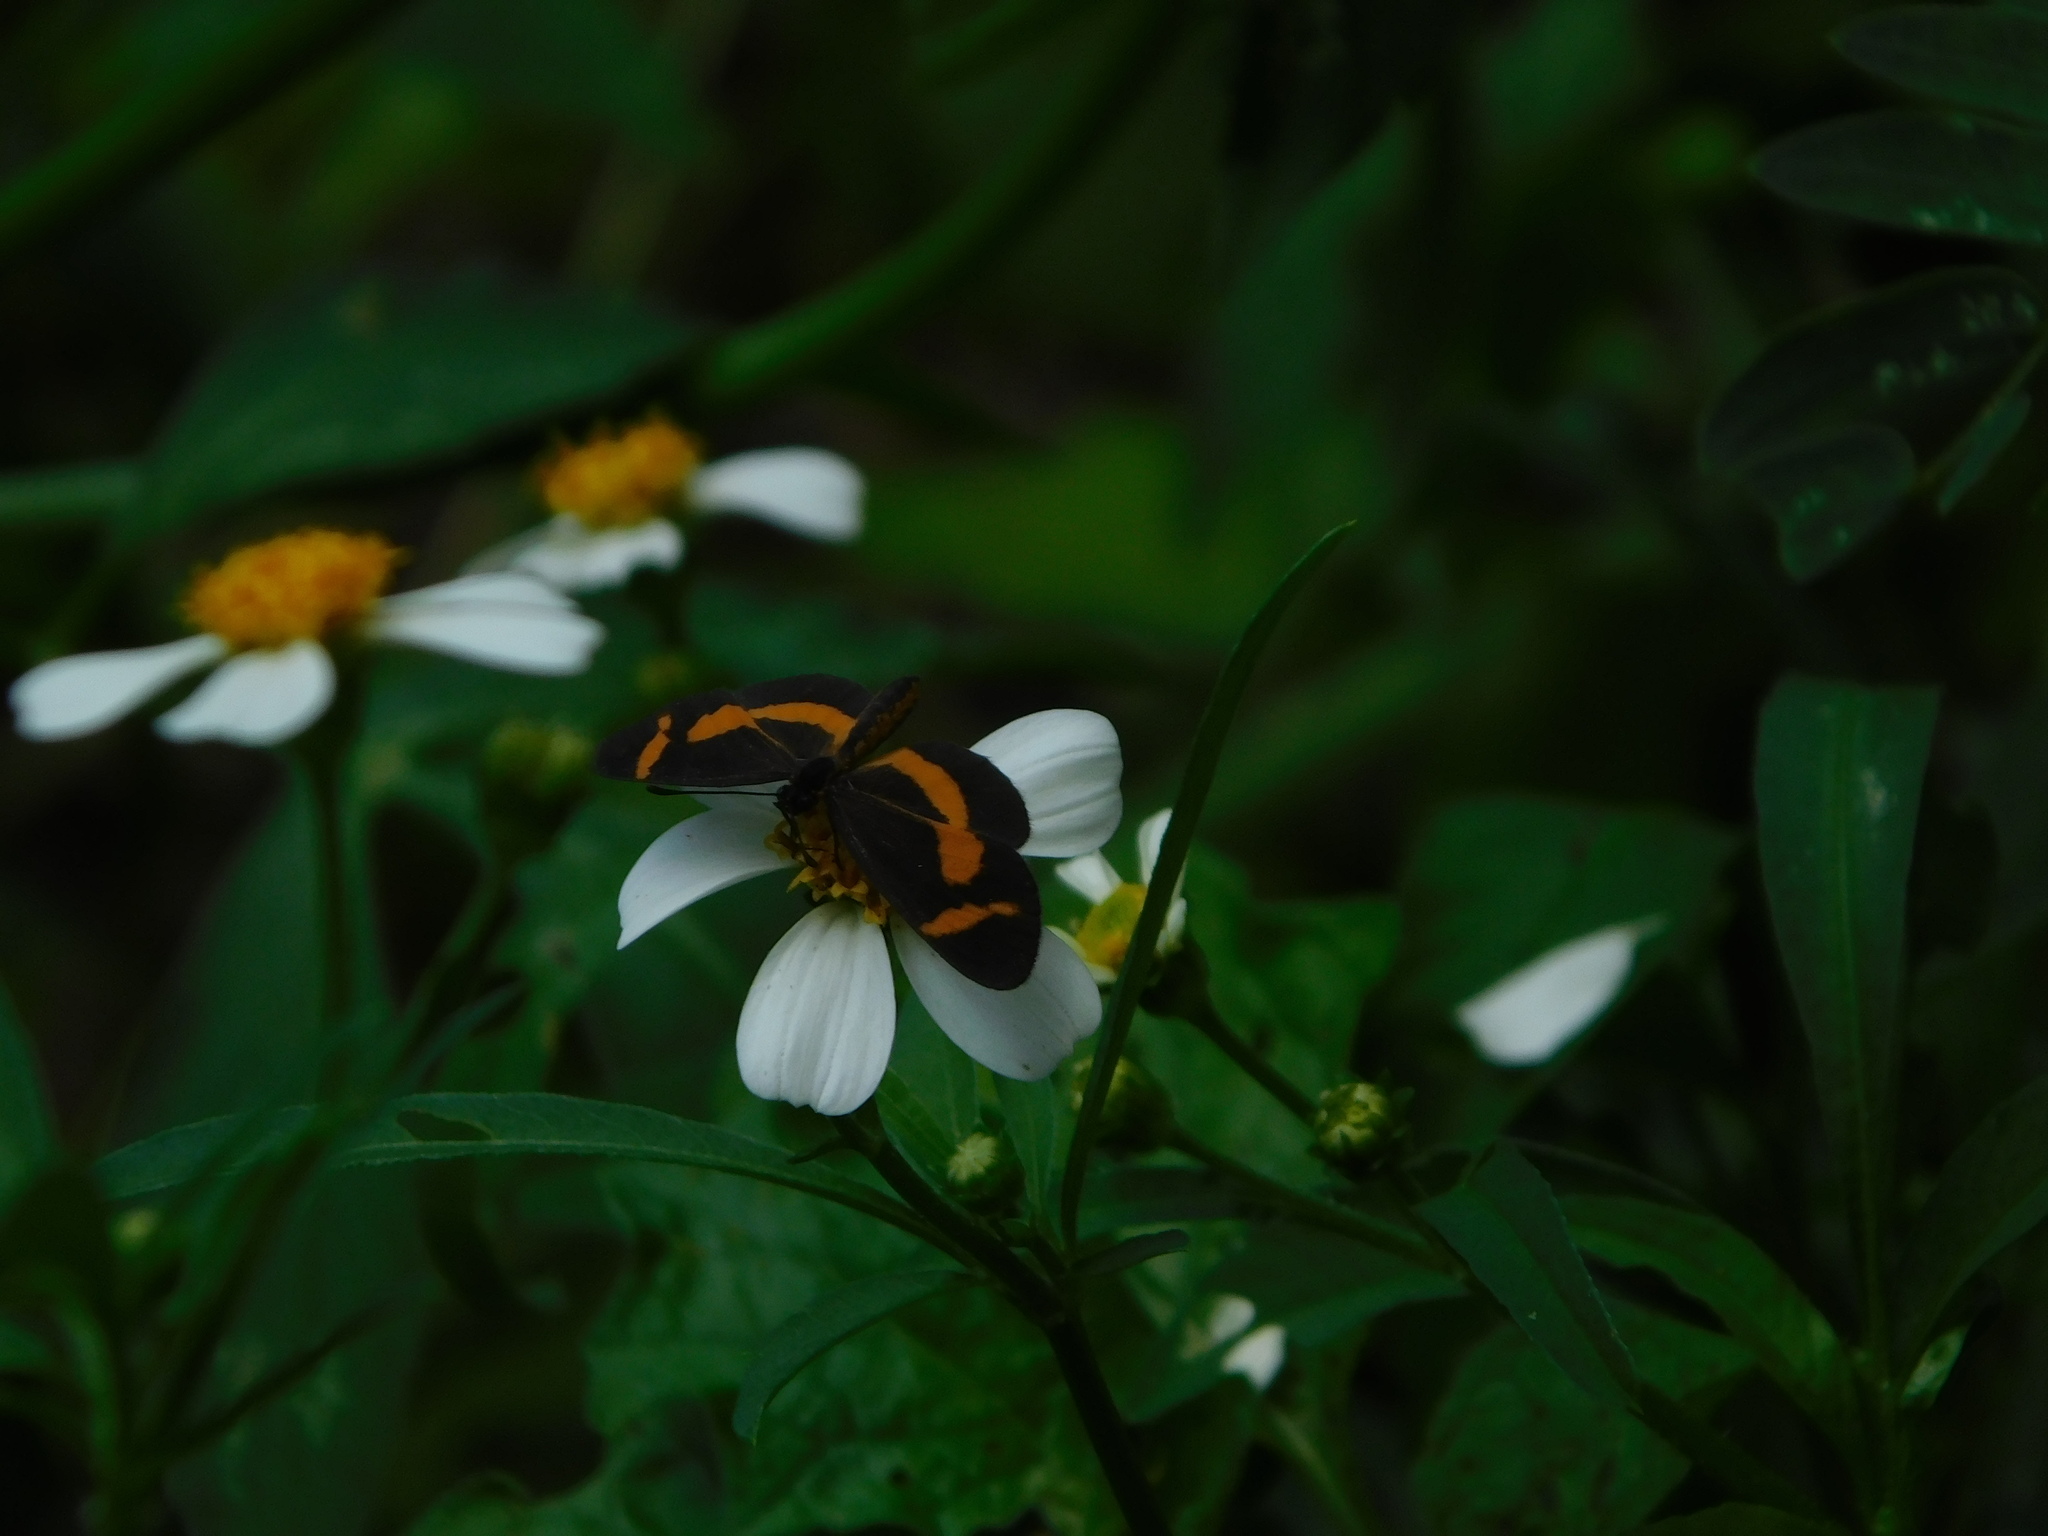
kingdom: Animalia
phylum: Arthropoda
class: Insecta
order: Lepidoptera
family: Nymphalidae
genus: Microtia
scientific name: Microtia elva
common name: Elf
